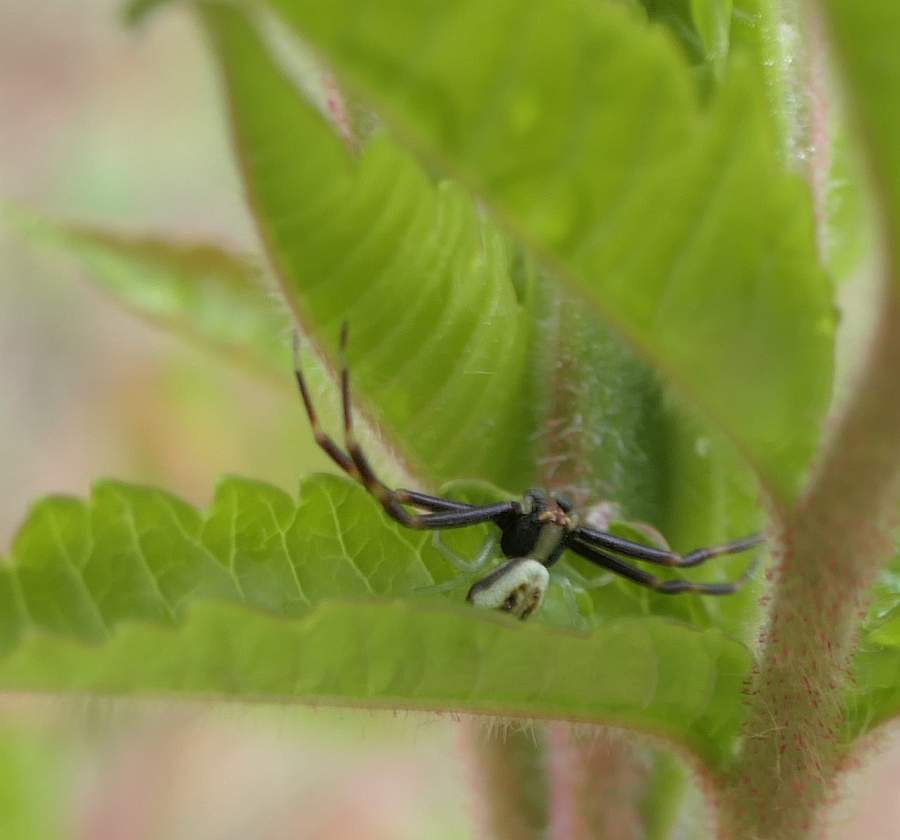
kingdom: Animalia
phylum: Arthropoda
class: Arachnida
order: Araneae
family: Thomisidae
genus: Misumena
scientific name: Misumena vatia
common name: Goldenrod crab spider
